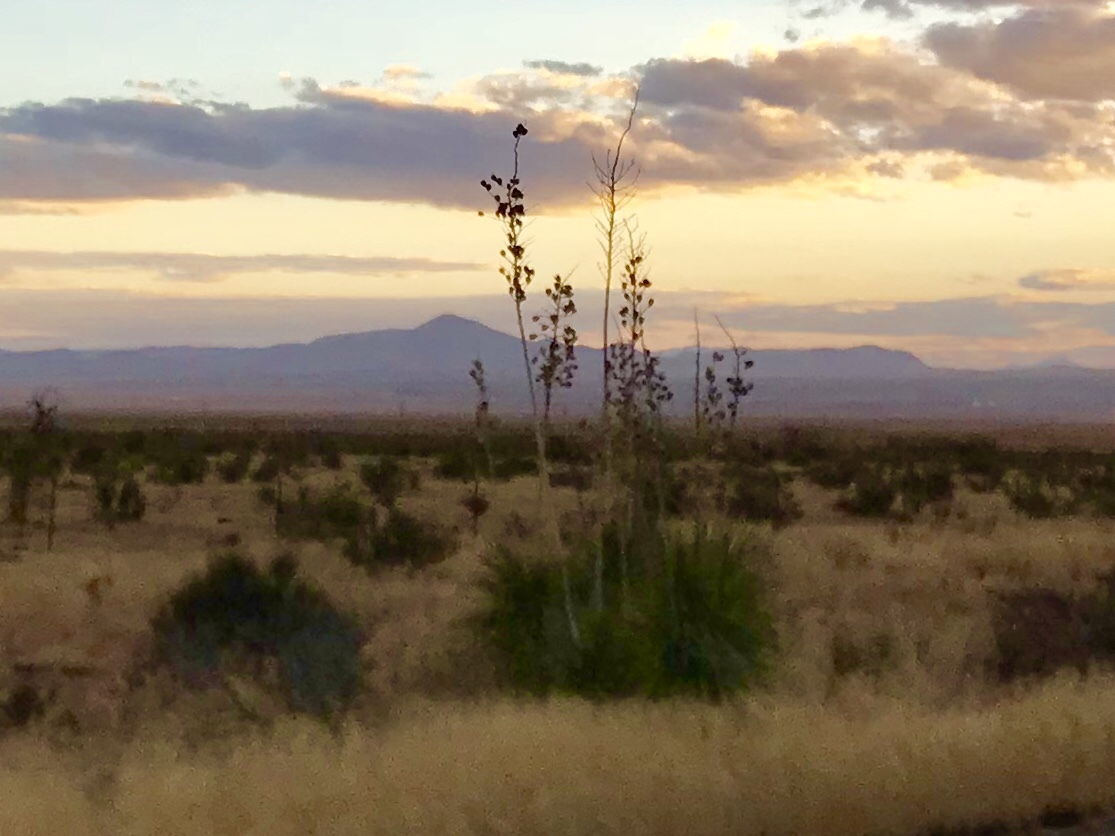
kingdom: Plantae
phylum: Tracheophyta
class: Liliopsida
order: Asparagales
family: Asparagaceae
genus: Yucca
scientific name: Yucca elata
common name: Palmella
